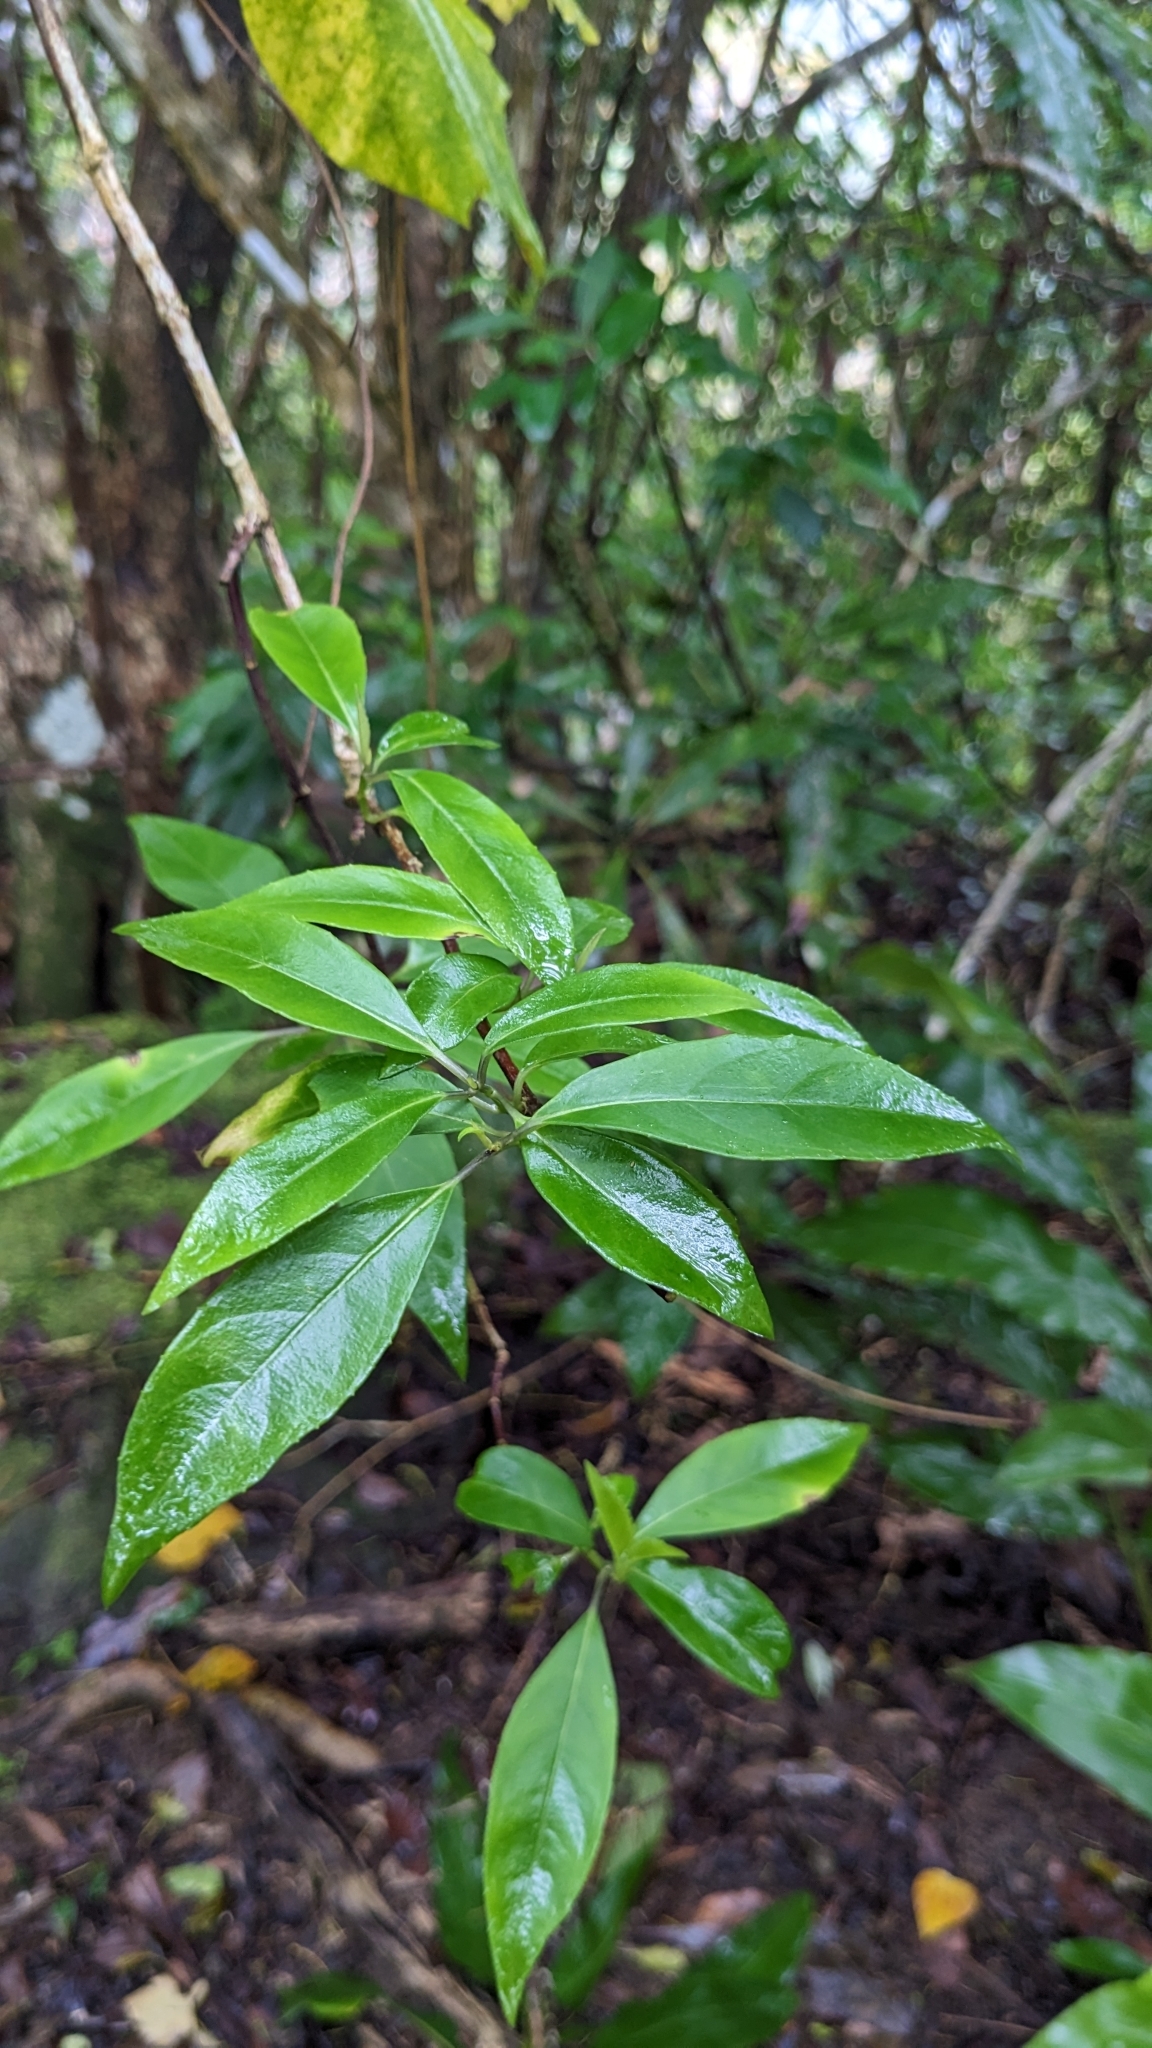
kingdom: Plantae
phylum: Tracheophyta
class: Magnoliopsida
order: Cornales
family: Hydrangeaceae
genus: Hydrangea
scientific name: Hydrangea chinensis
